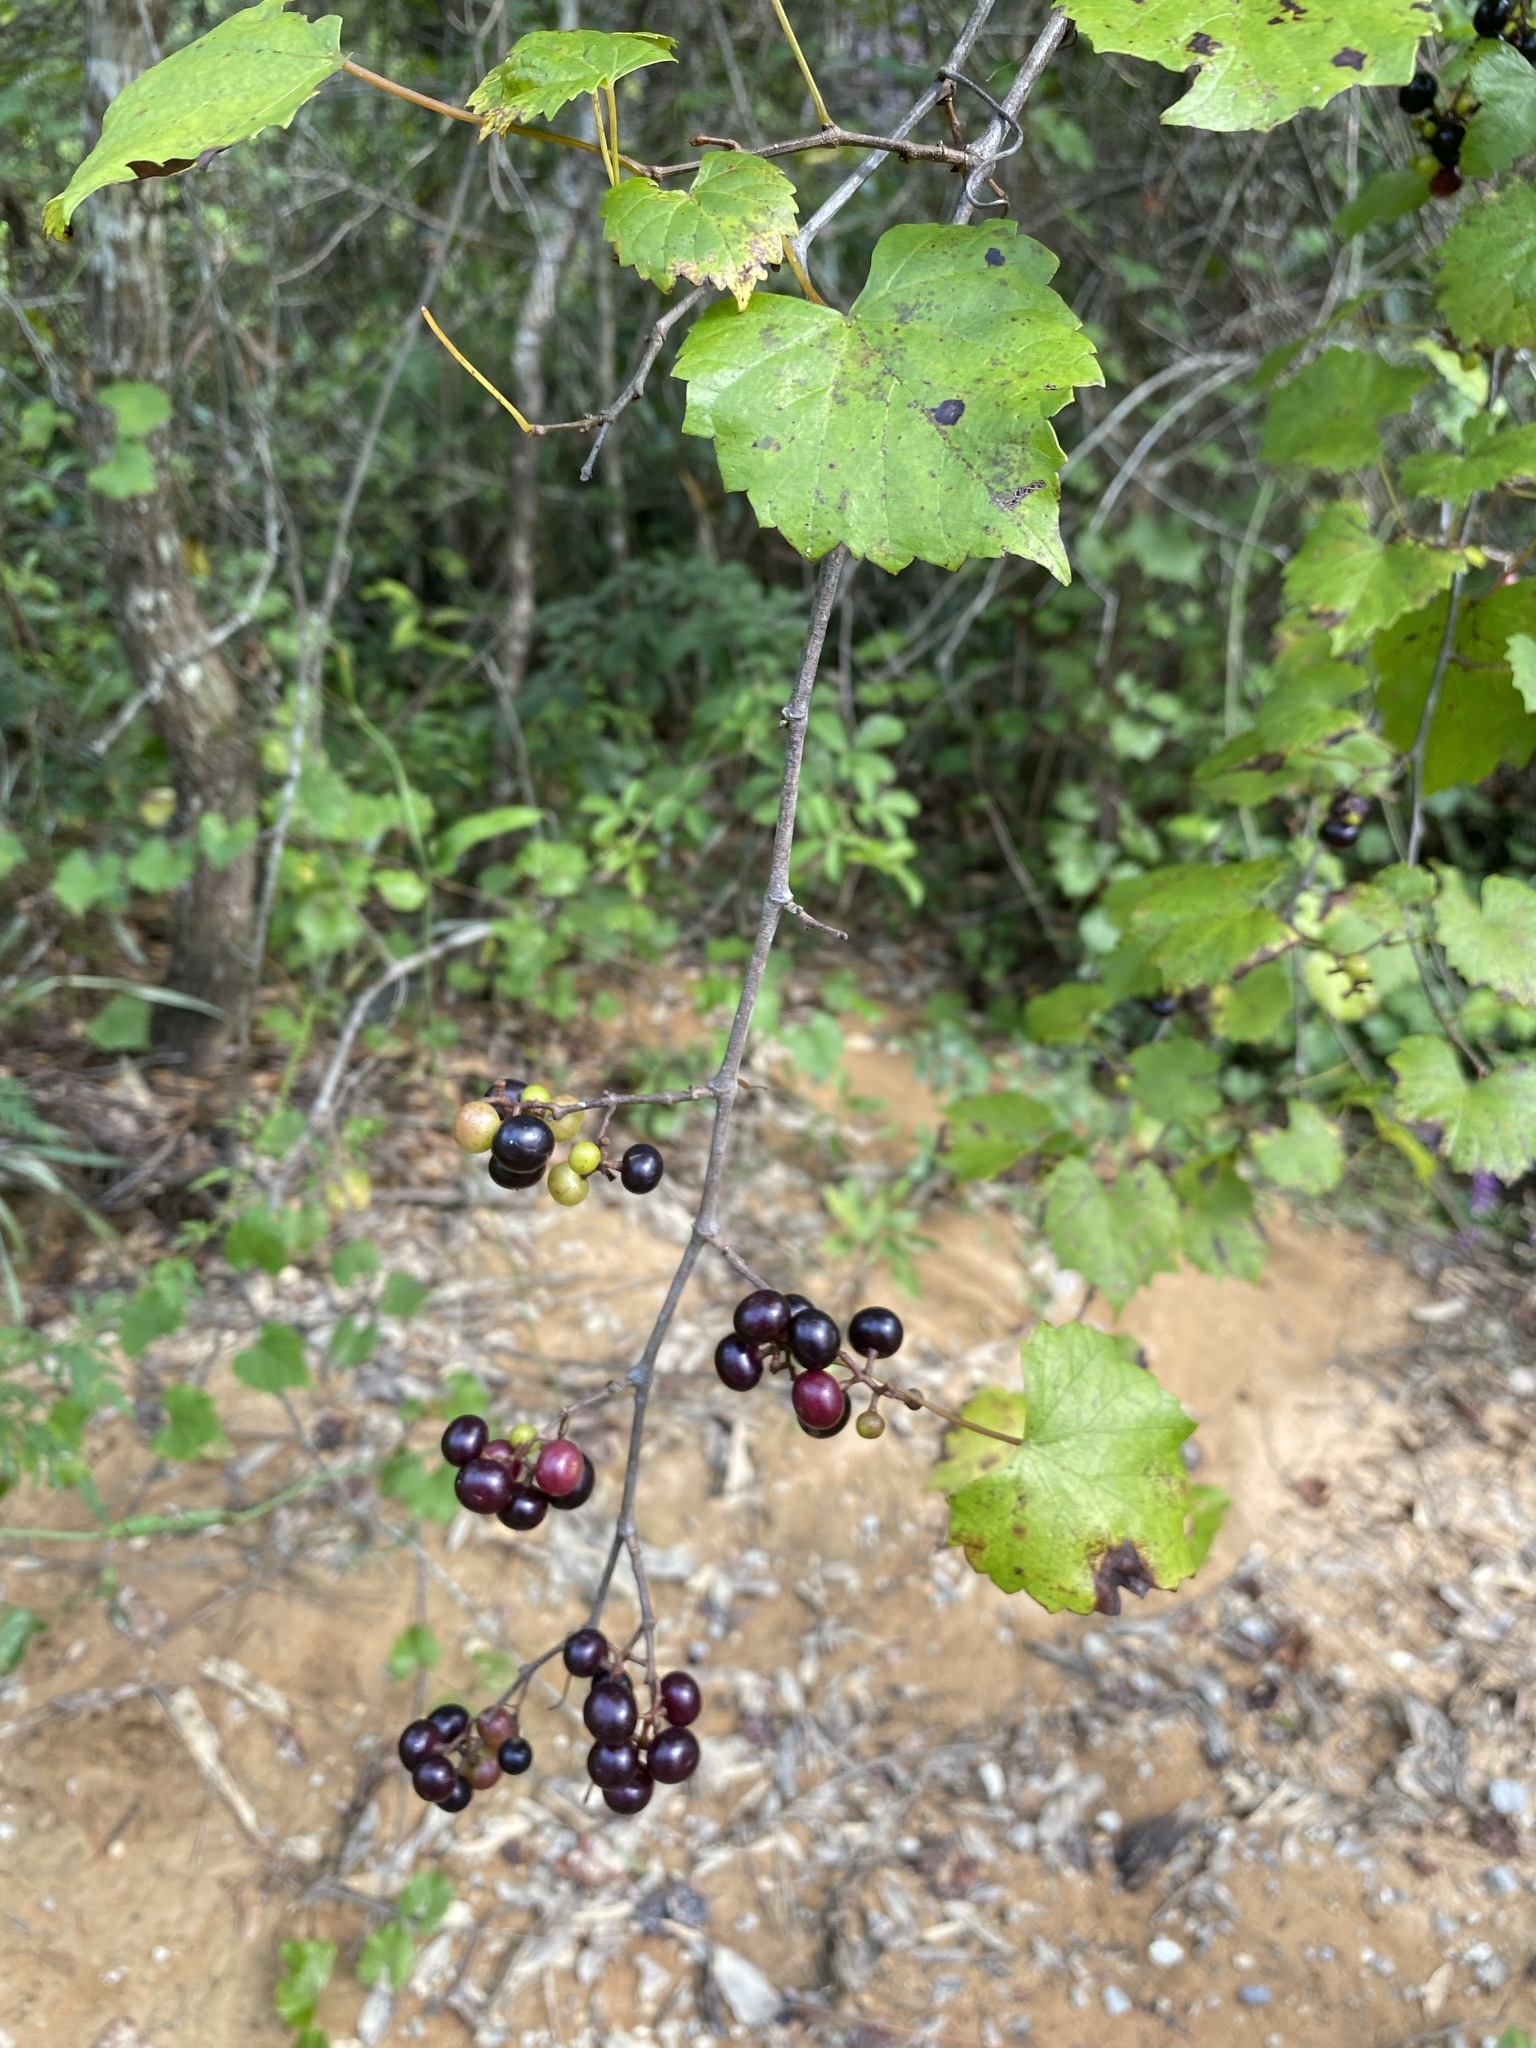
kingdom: Plantae
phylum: Tracheophyta
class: Magnoliopsida
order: Vitales
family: Vitaceae
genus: Vitis
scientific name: Vitis rotundifolia
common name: Muscadine grape
